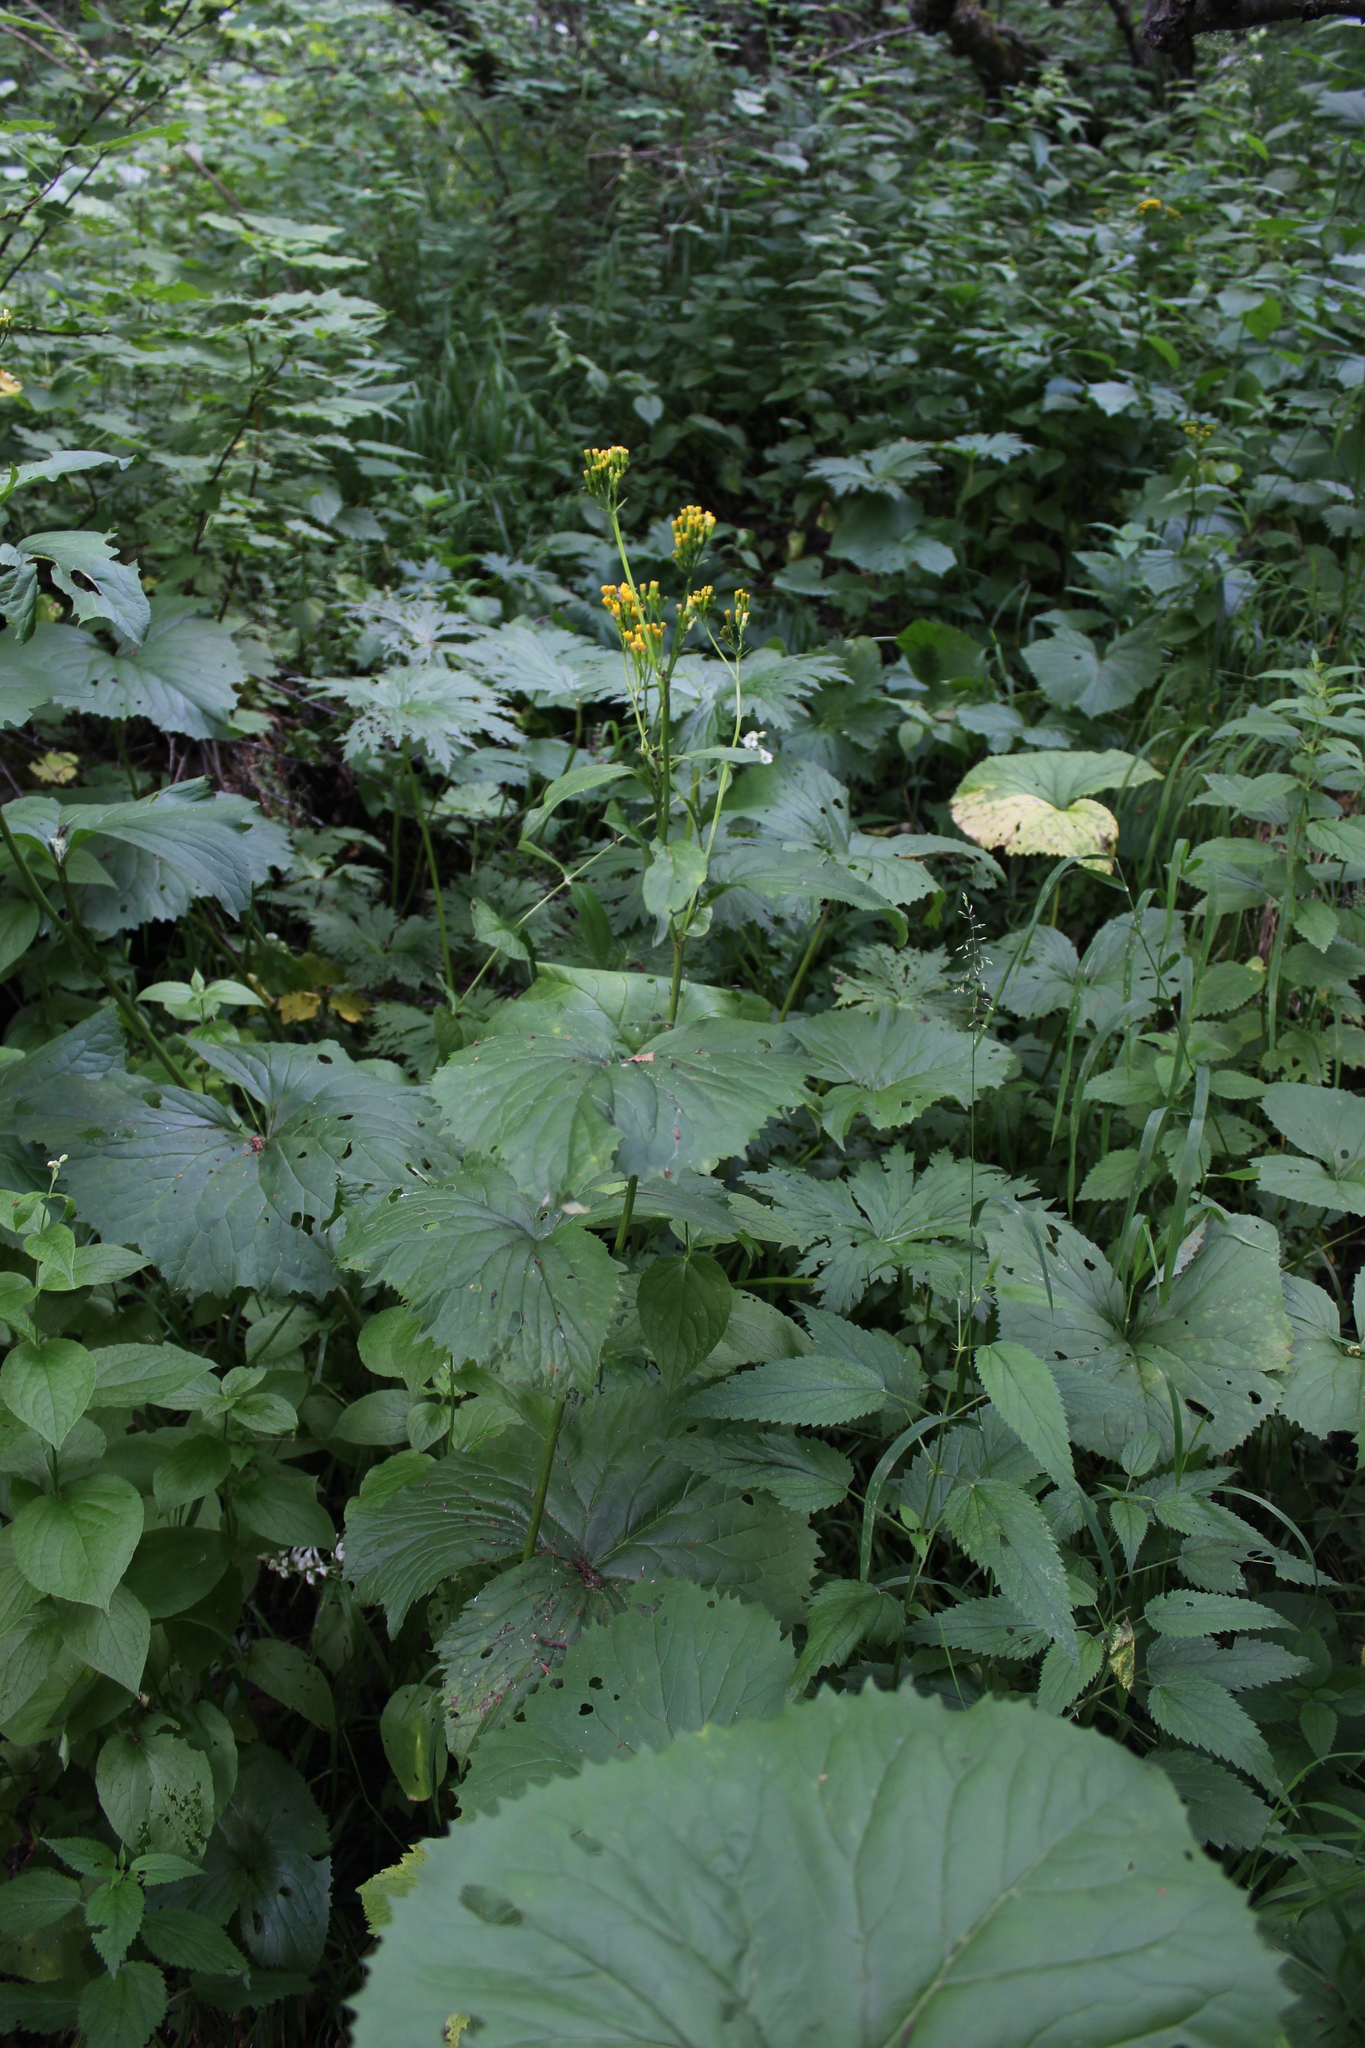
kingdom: Plantae
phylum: Tracheophyta
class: Magnoliopsida
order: Asterales
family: Asteraceae
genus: Caucasalia
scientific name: Caucasalia macrophylla
